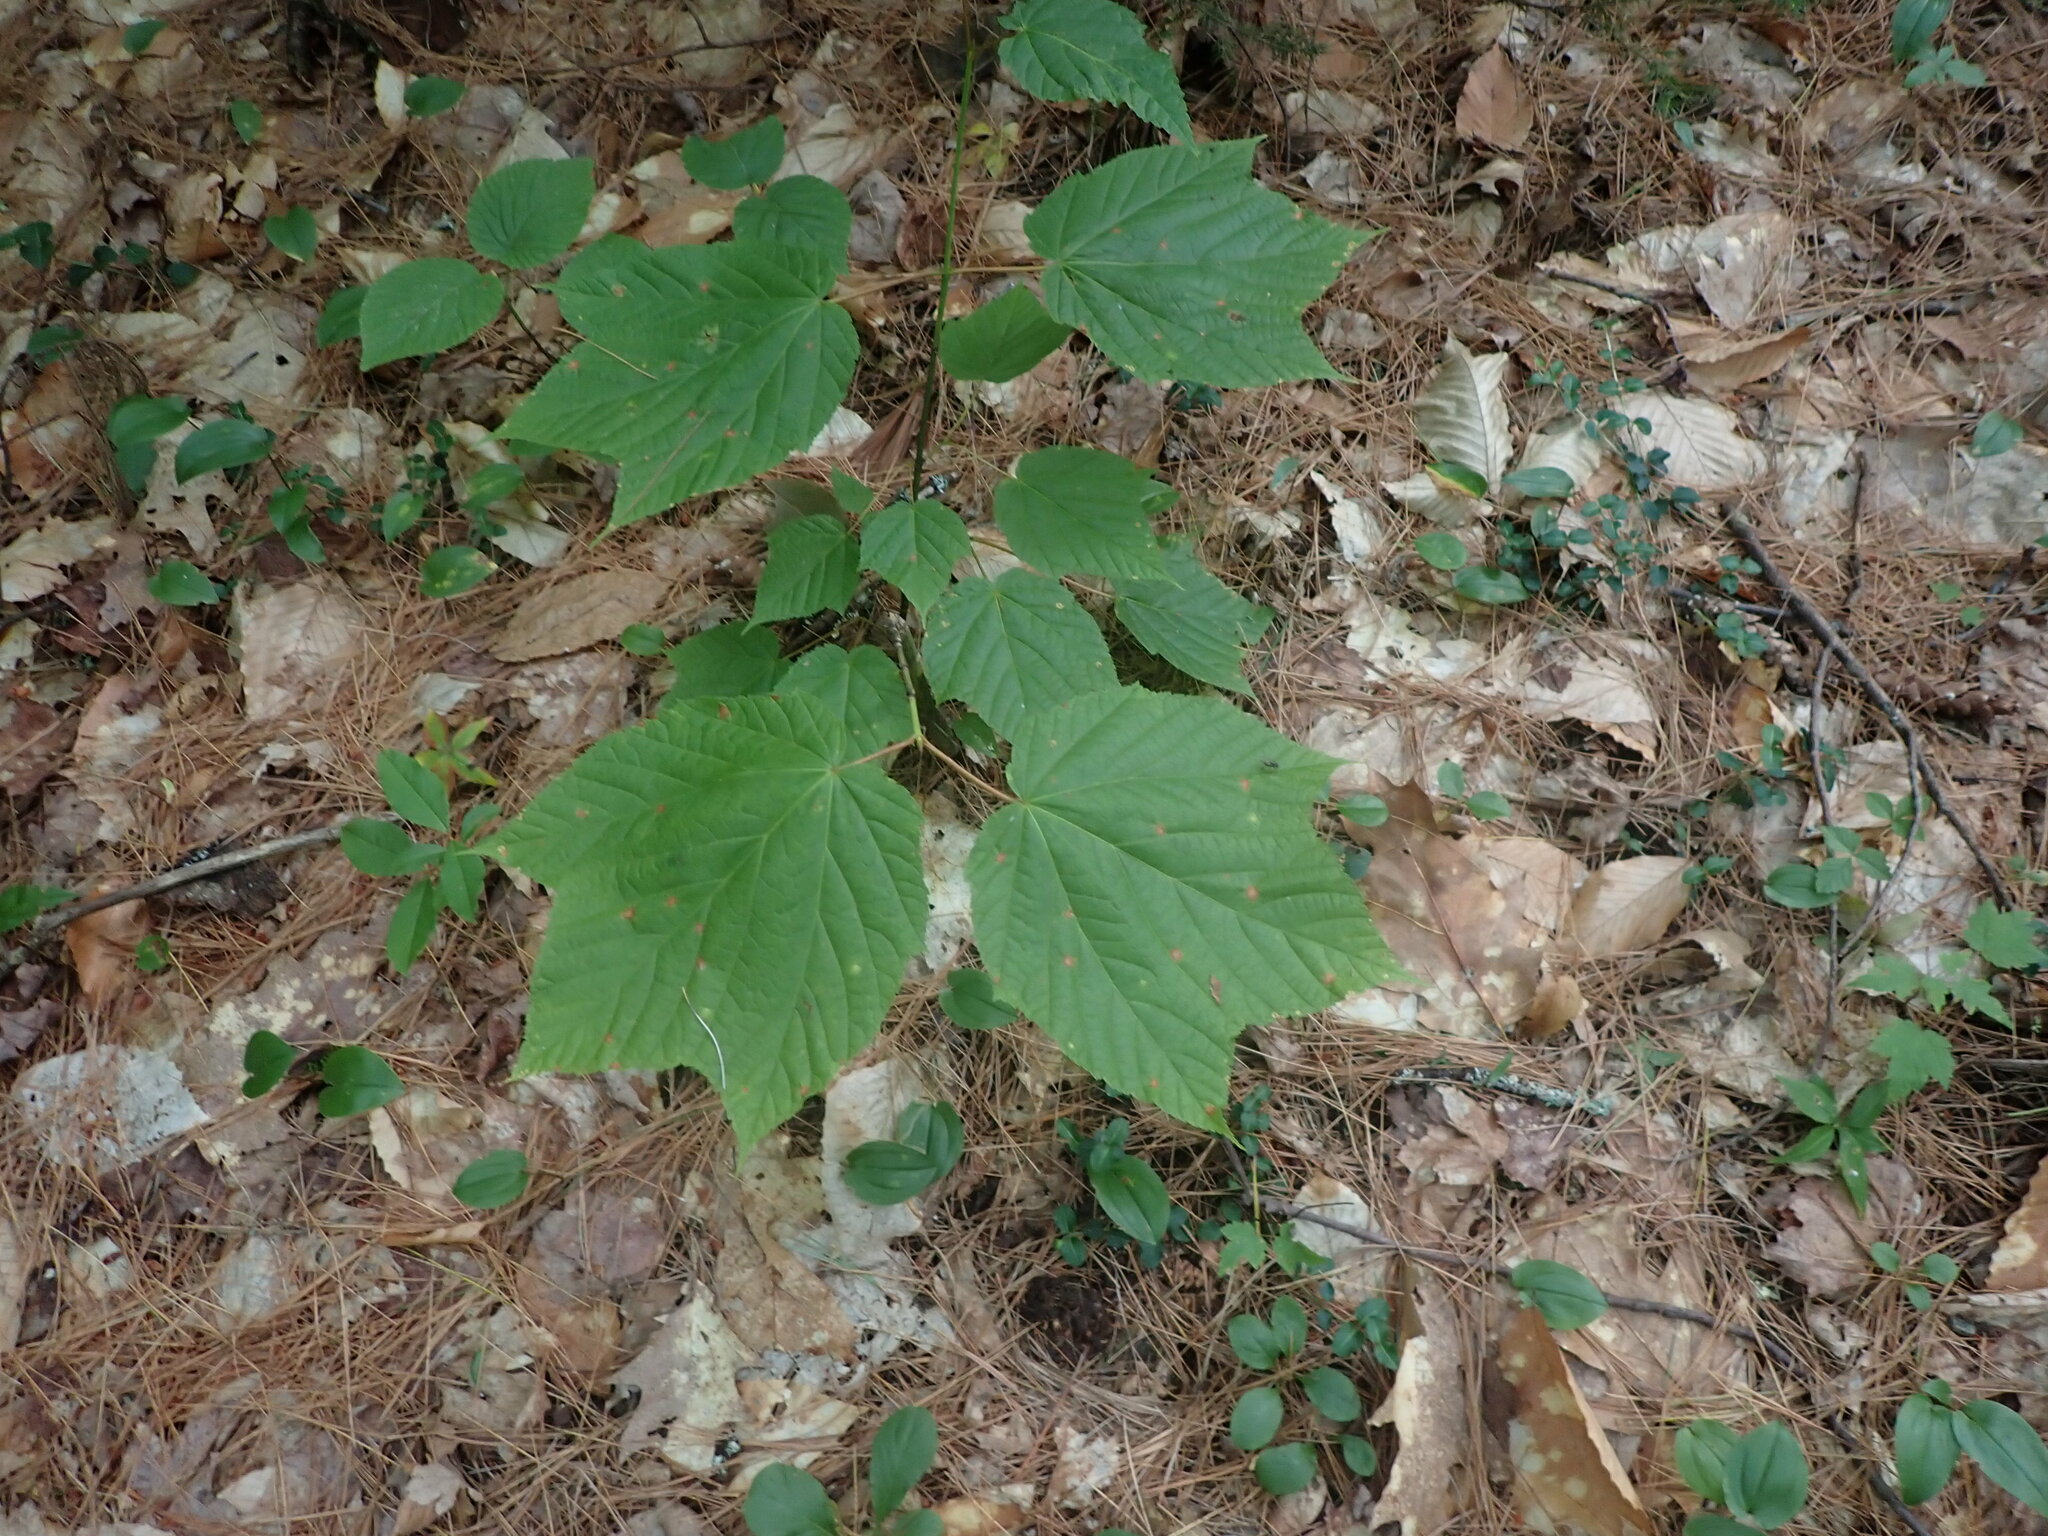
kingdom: Plantae
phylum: Tracheophyta
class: Magnoliopsida
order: Sapindales
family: Sapindaceae
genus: Acer
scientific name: Acer pensylvanicum
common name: Moosewood
